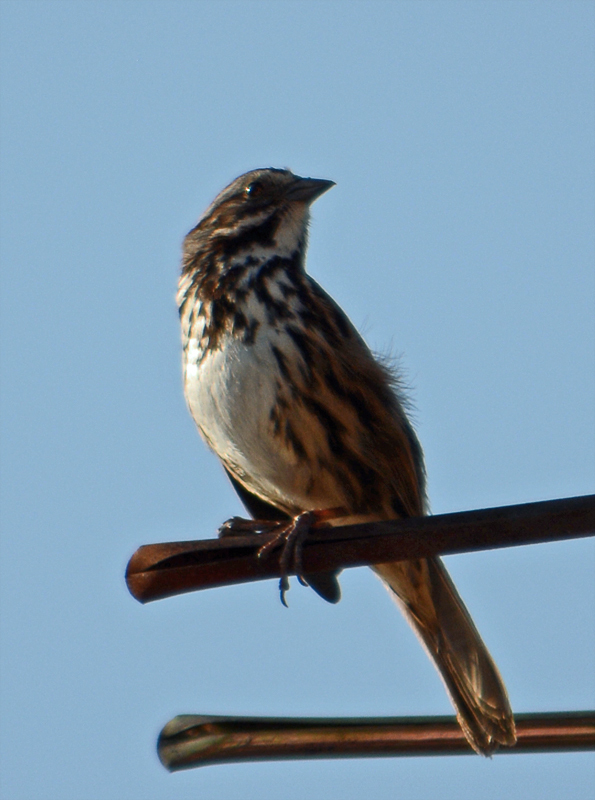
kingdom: Animalia
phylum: Chordata
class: Aves
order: Passeriformes
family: Passerellidae
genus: Melospiza
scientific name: Melospiza melodia
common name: Song sparrow
